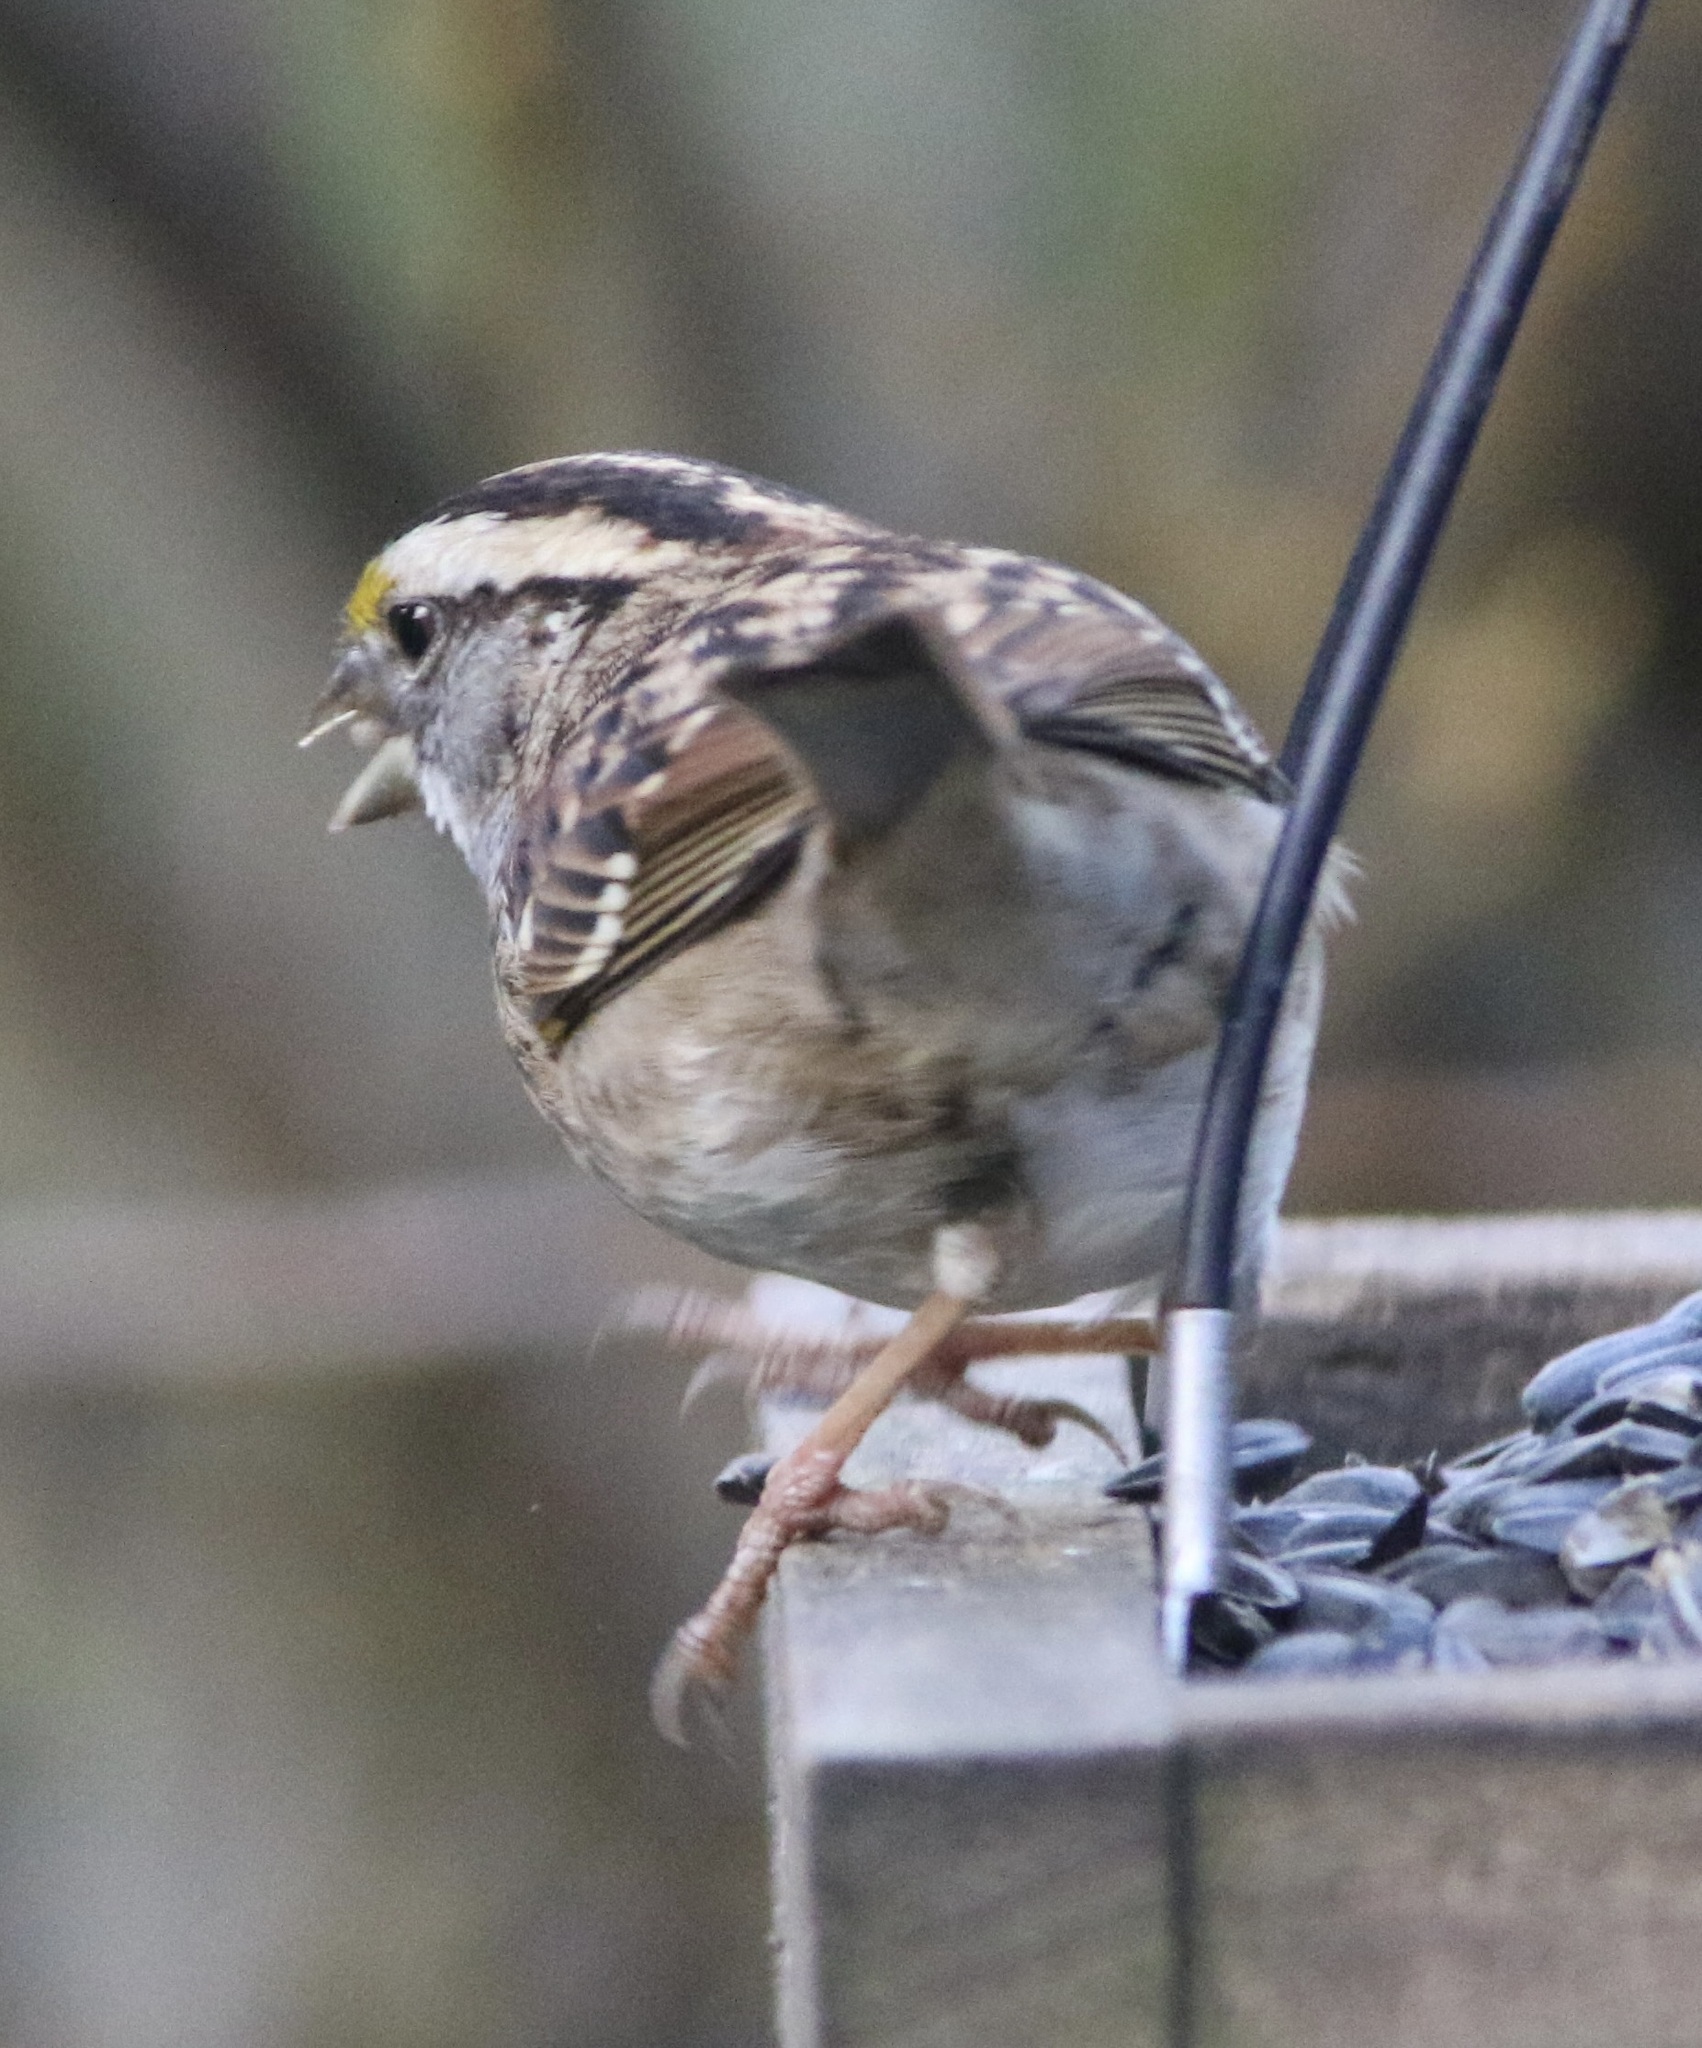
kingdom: Animalia
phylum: Chordata
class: Aves
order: Passeriformes
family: Passerellidae
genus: Zonotrichia
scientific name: Zonotrichia albicollis
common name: White-throated sparrow
